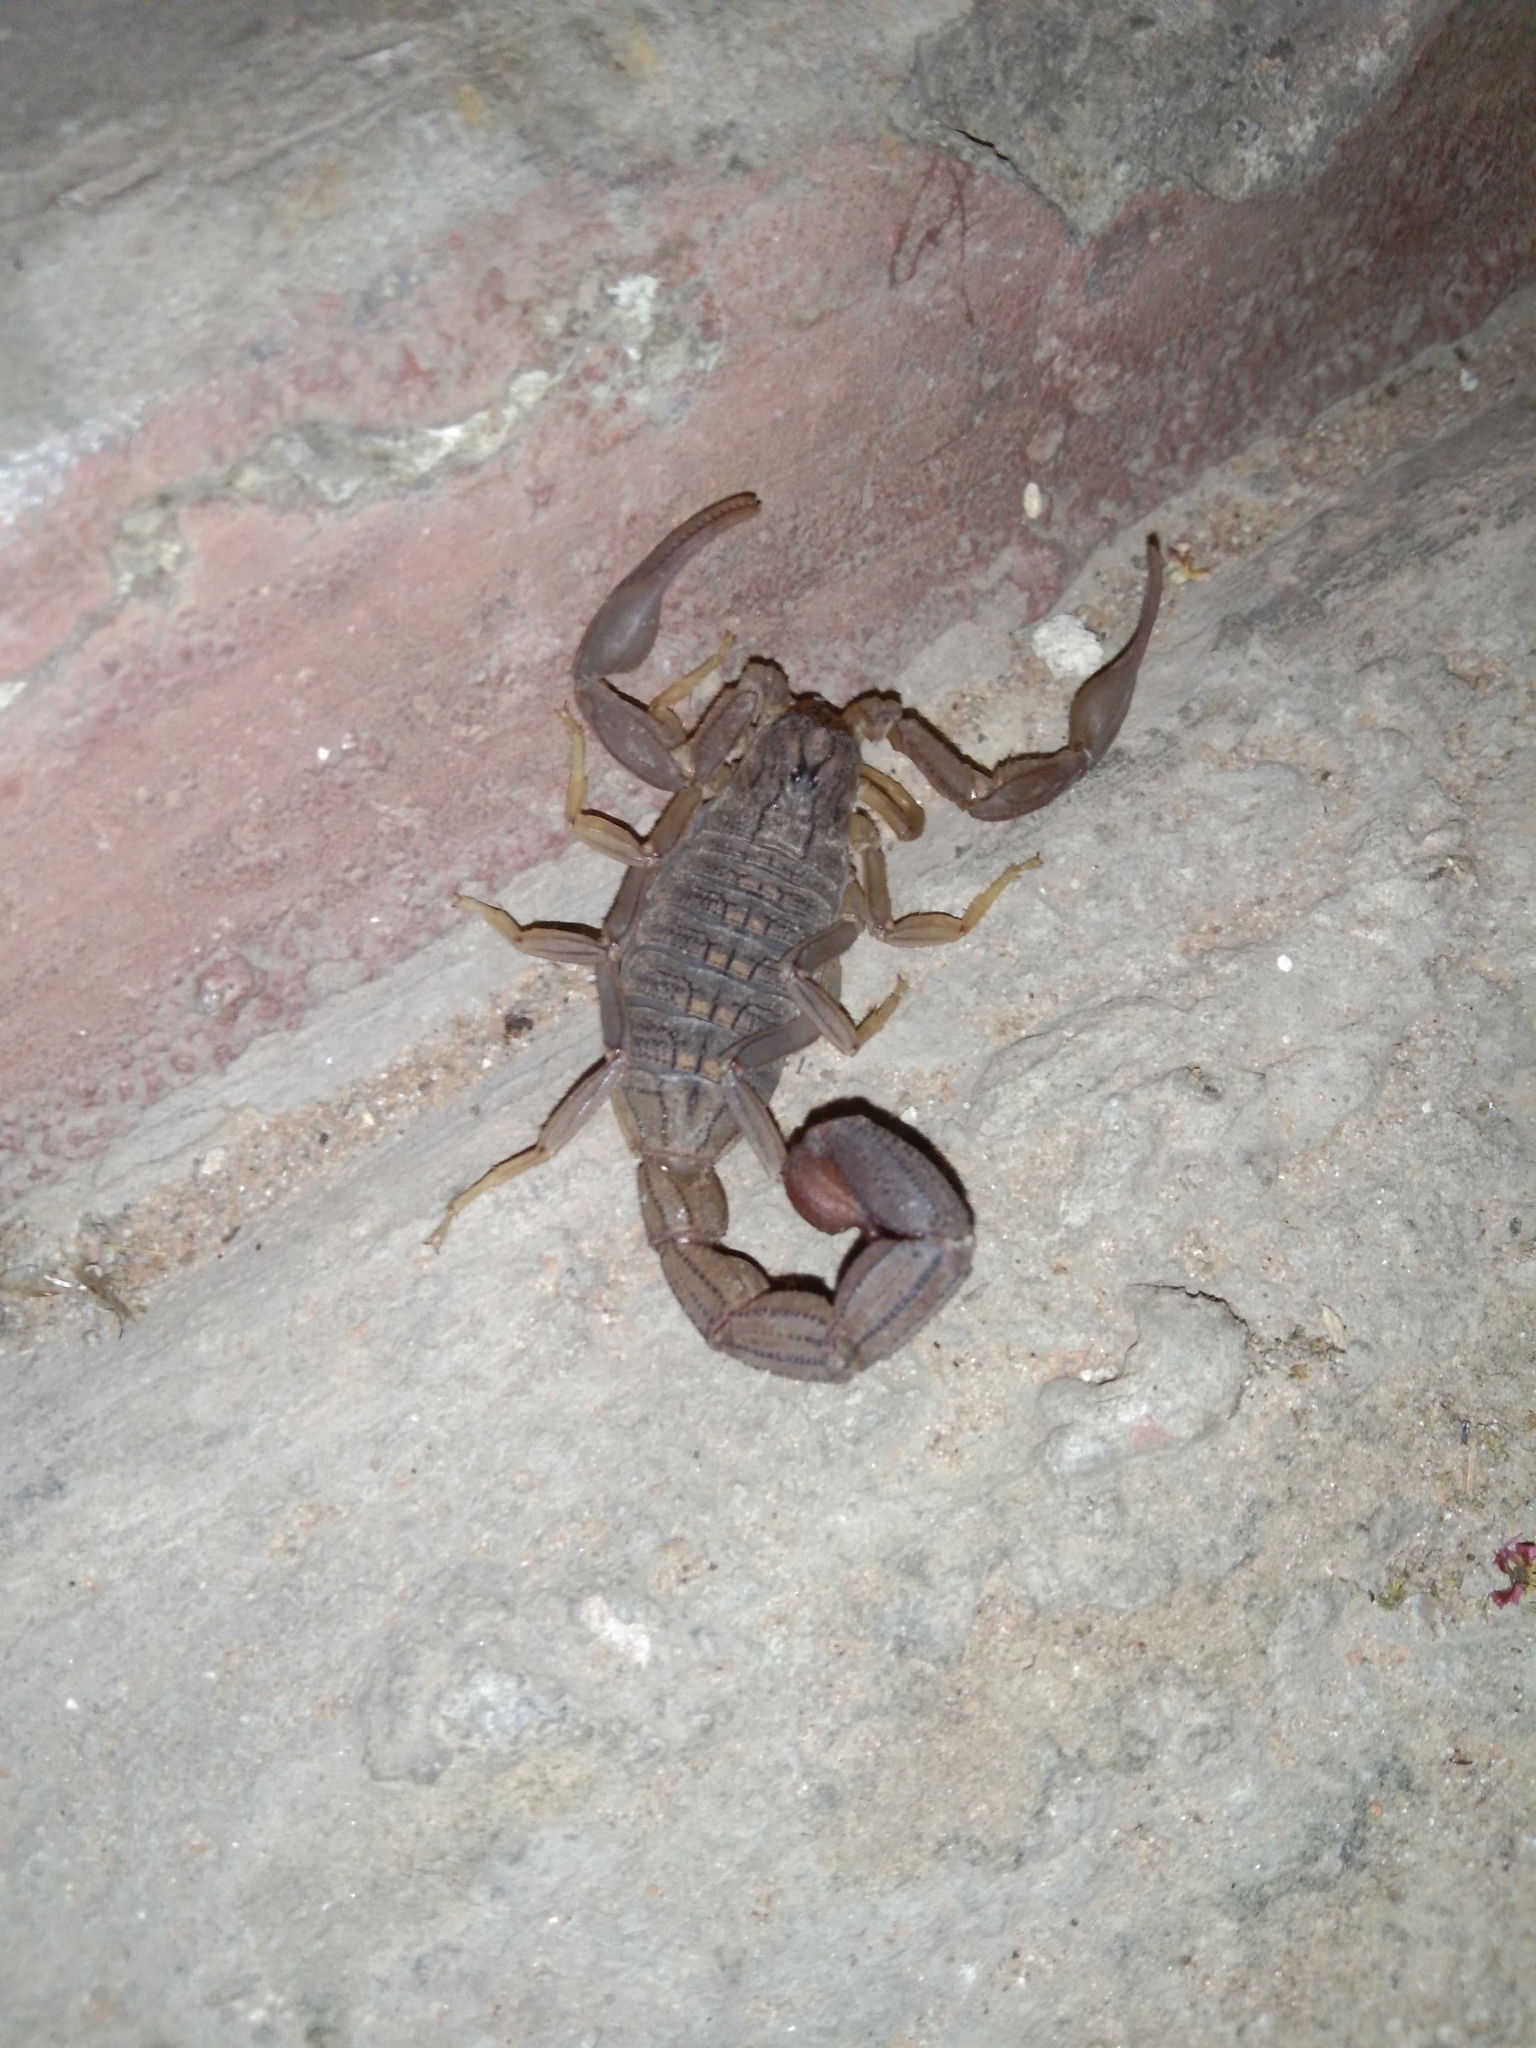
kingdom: Animalia
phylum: Arthropoda
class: Arachnida
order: Scorpiones
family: Buthidae
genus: Hottentotta
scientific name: Hottentotta hottentotta
